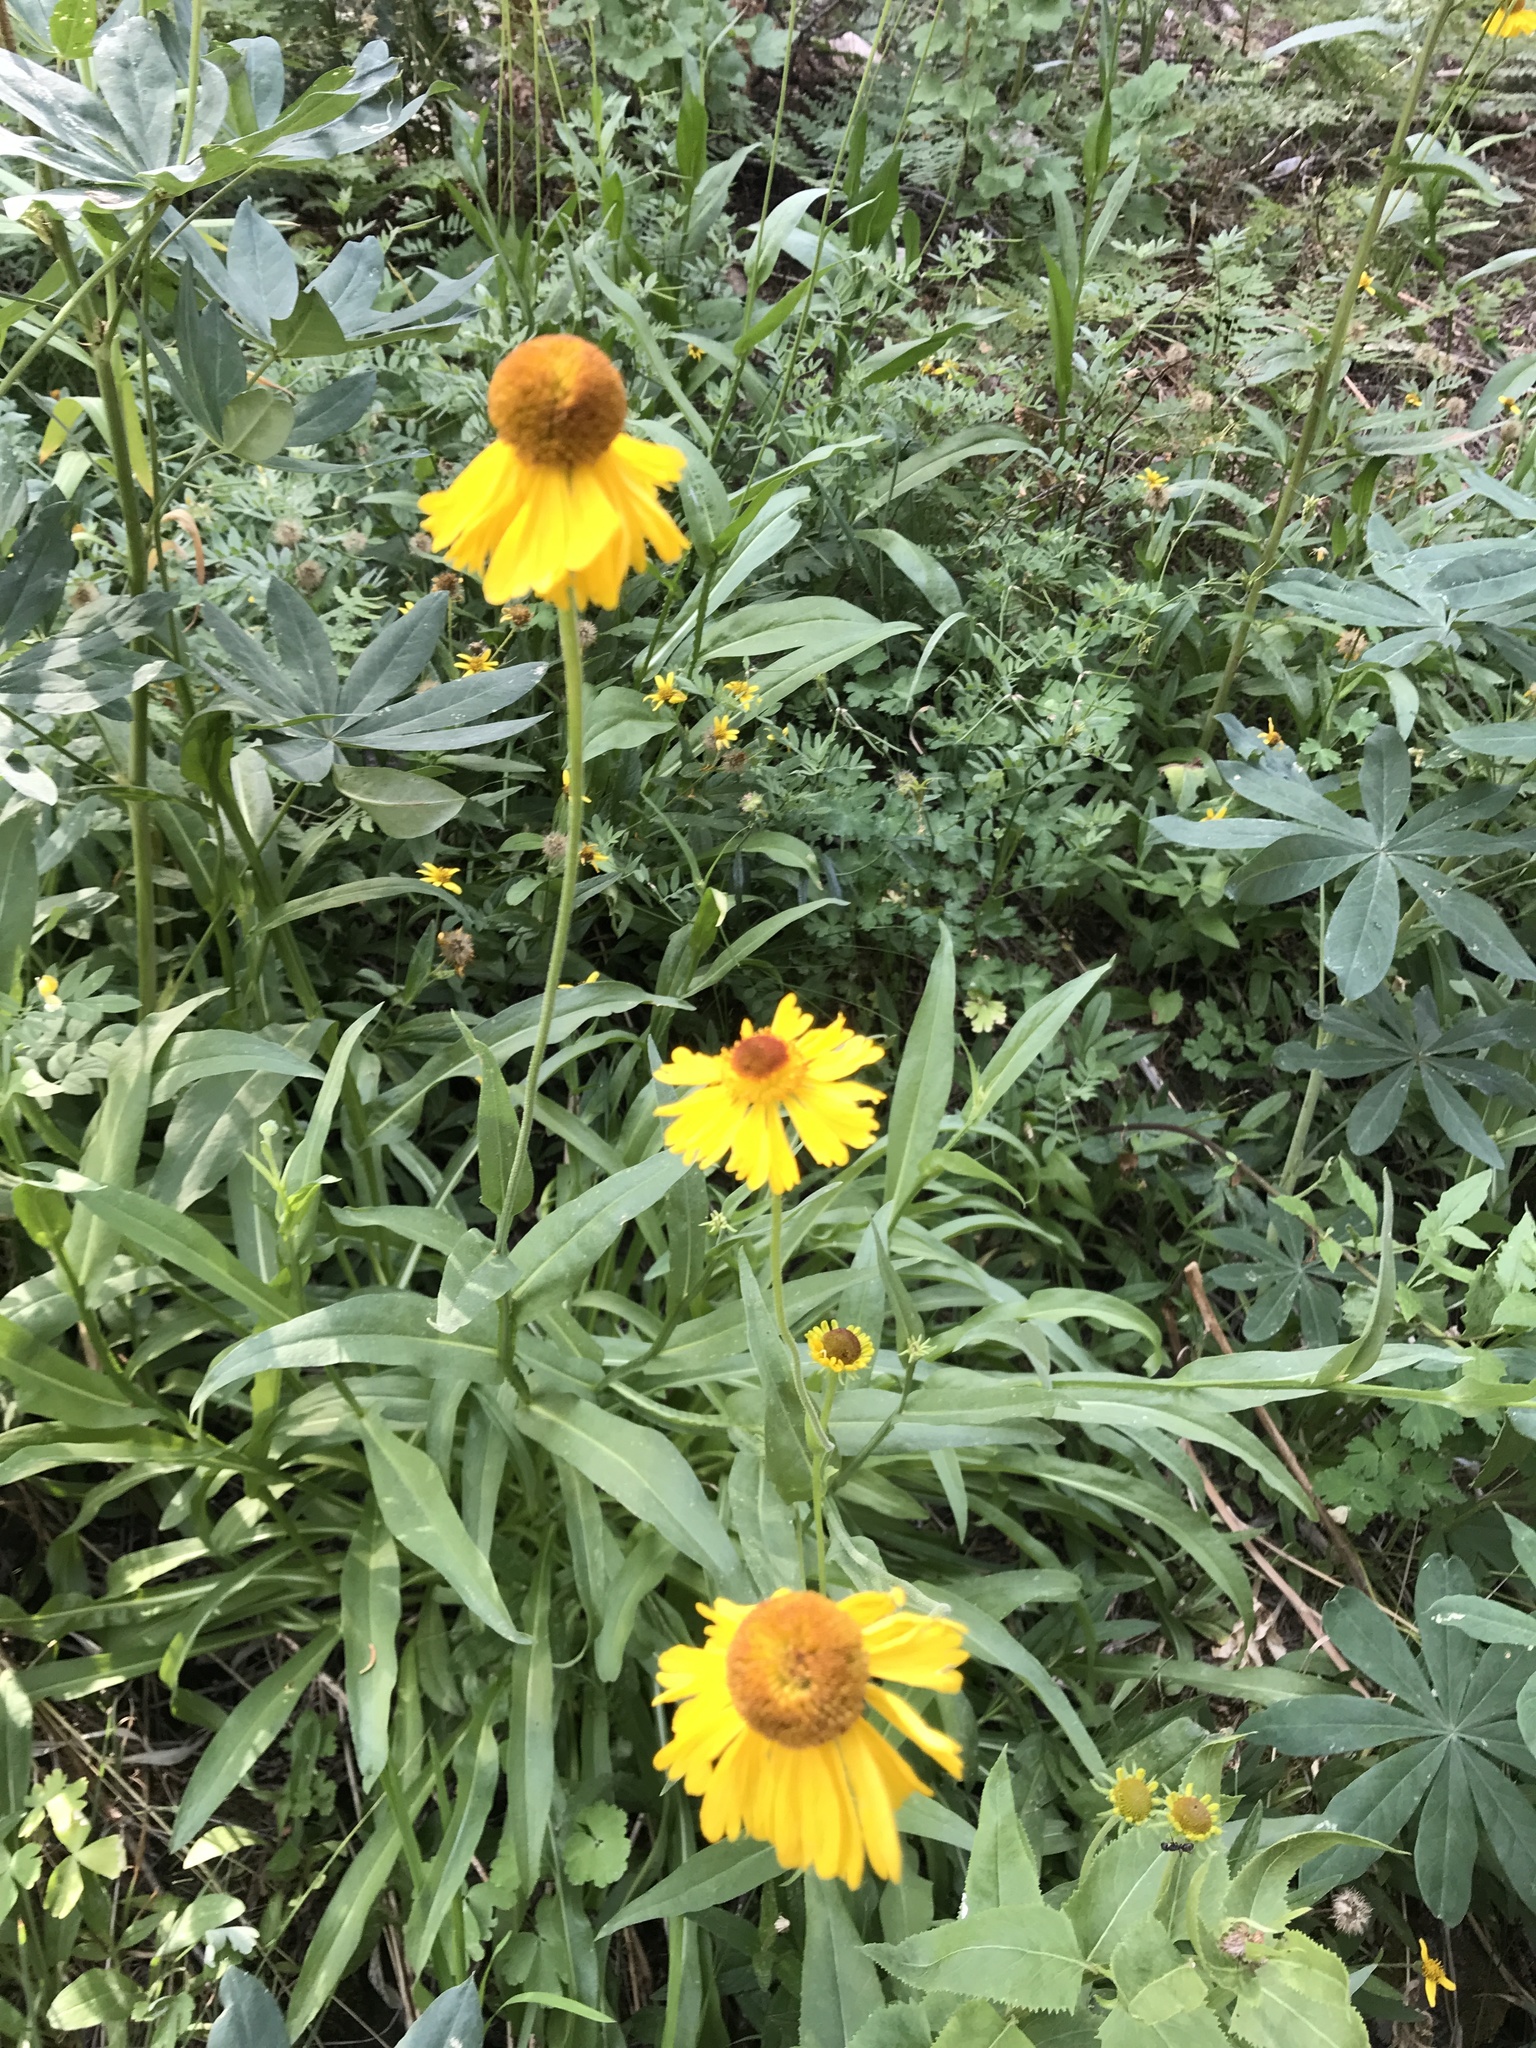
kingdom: Plantae
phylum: Tracheophyta
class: Magnoliopsida
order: Asterales
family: Asteraceae
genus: Helenium
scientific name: Helenium bigelovii
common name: Bigelow's sneezeweed
